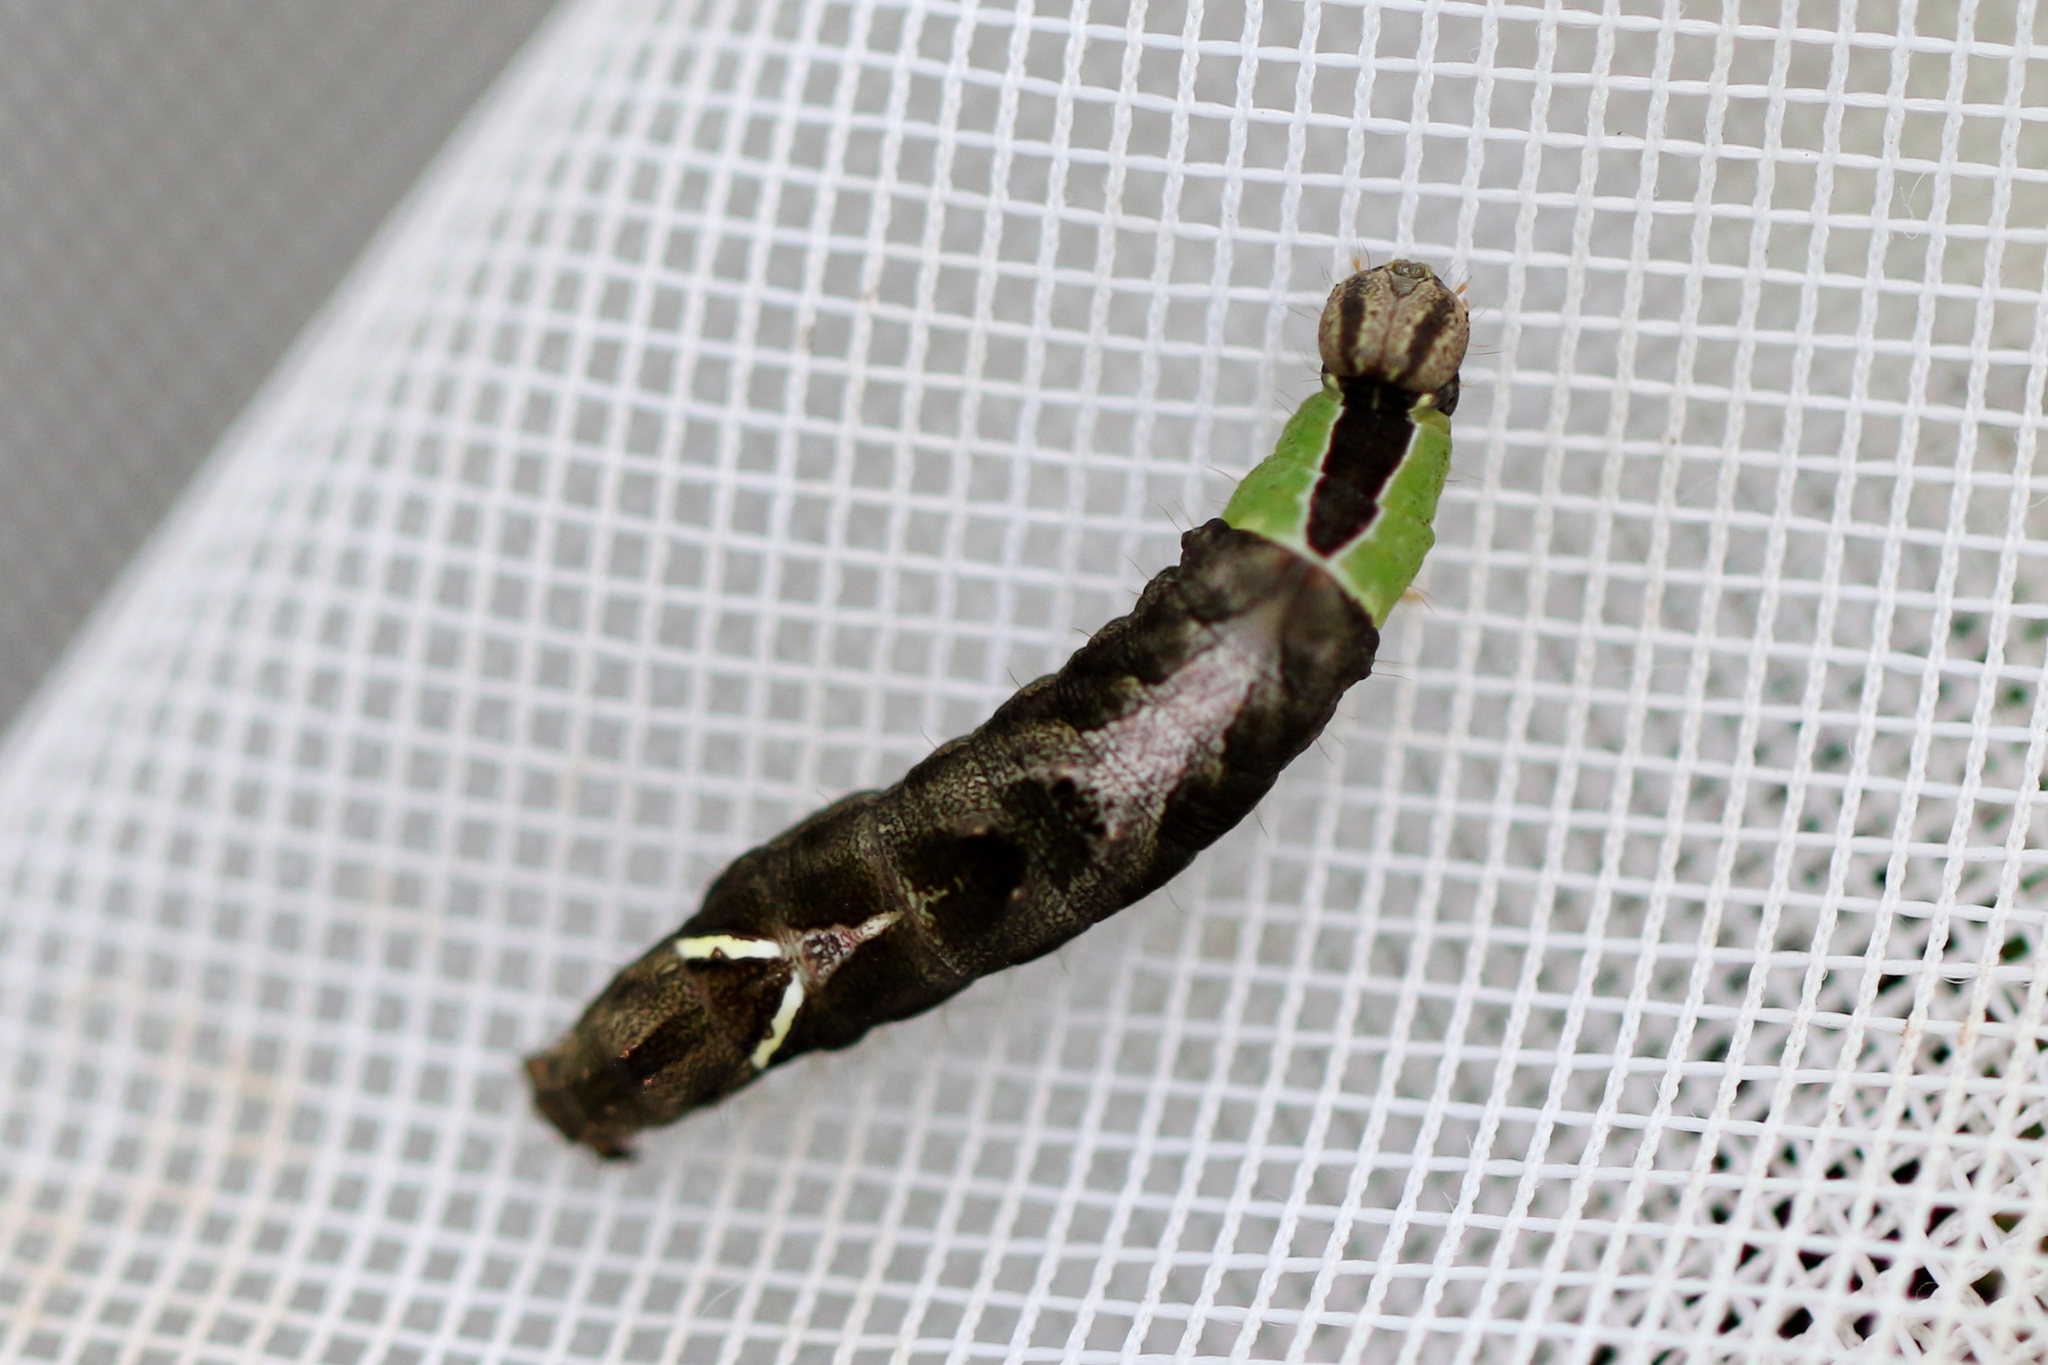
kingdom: Animalia
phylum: Arthropoda
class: Insecta
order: Lepidoptera
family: Notodontidae
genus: Schizura
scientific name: Schizura
